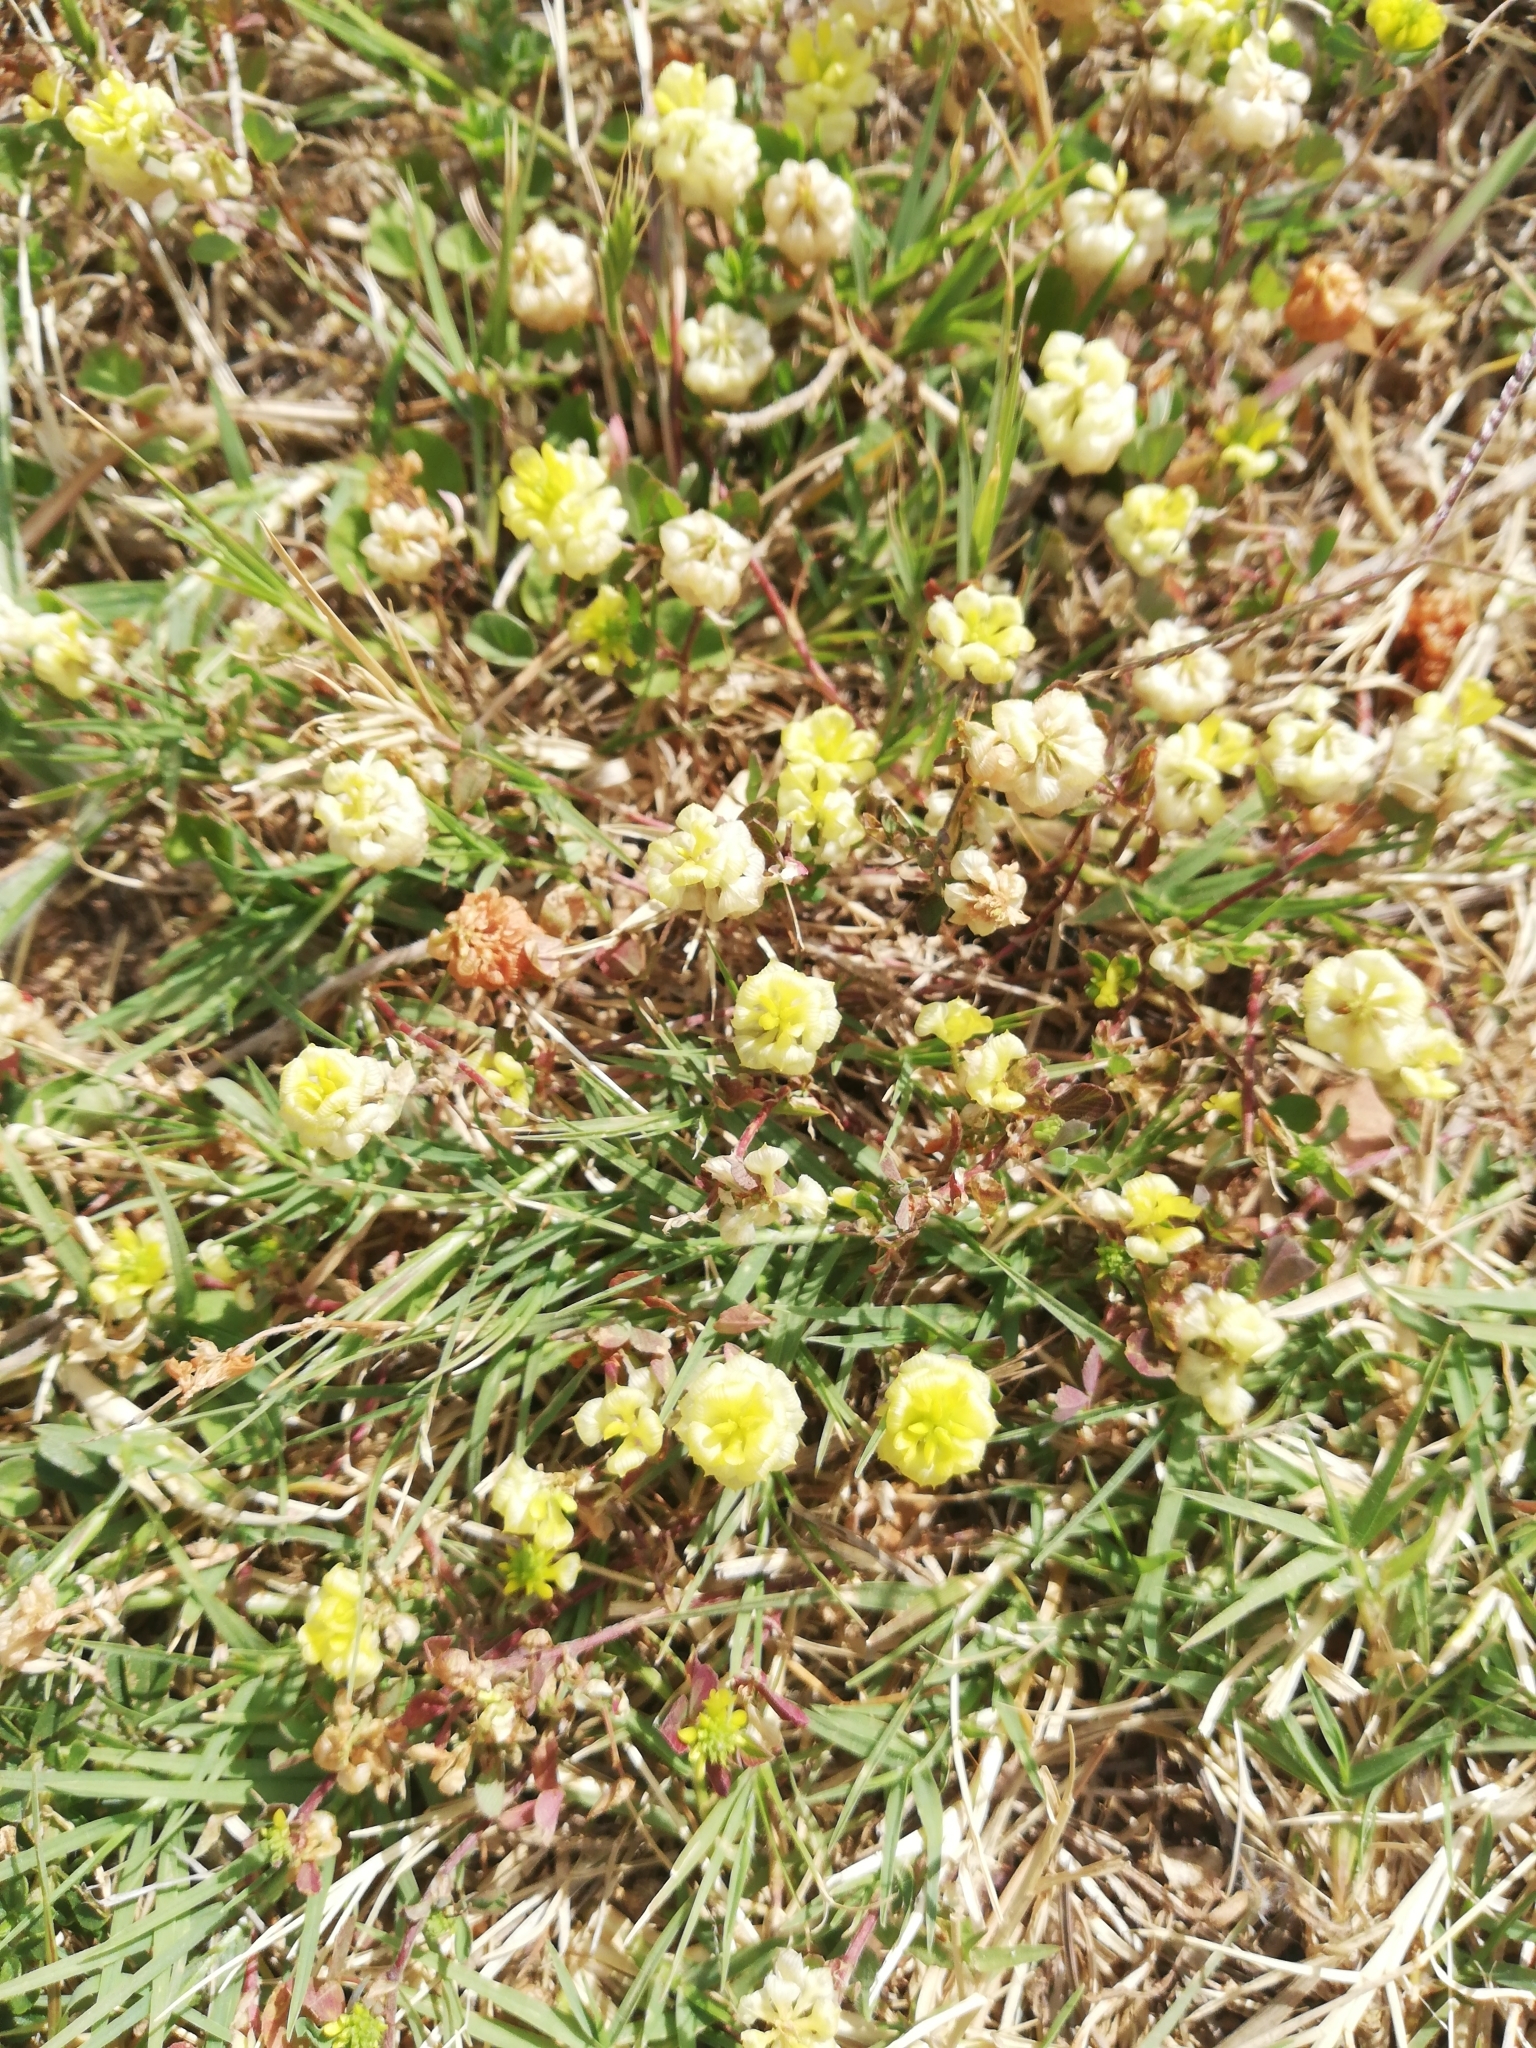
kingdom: Plantae
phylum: Tracheophyta
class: Magnoliopsida
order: Fabales
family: Fabaceae
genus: Trifolium
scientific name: Trifolium campestre
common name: Field clover
